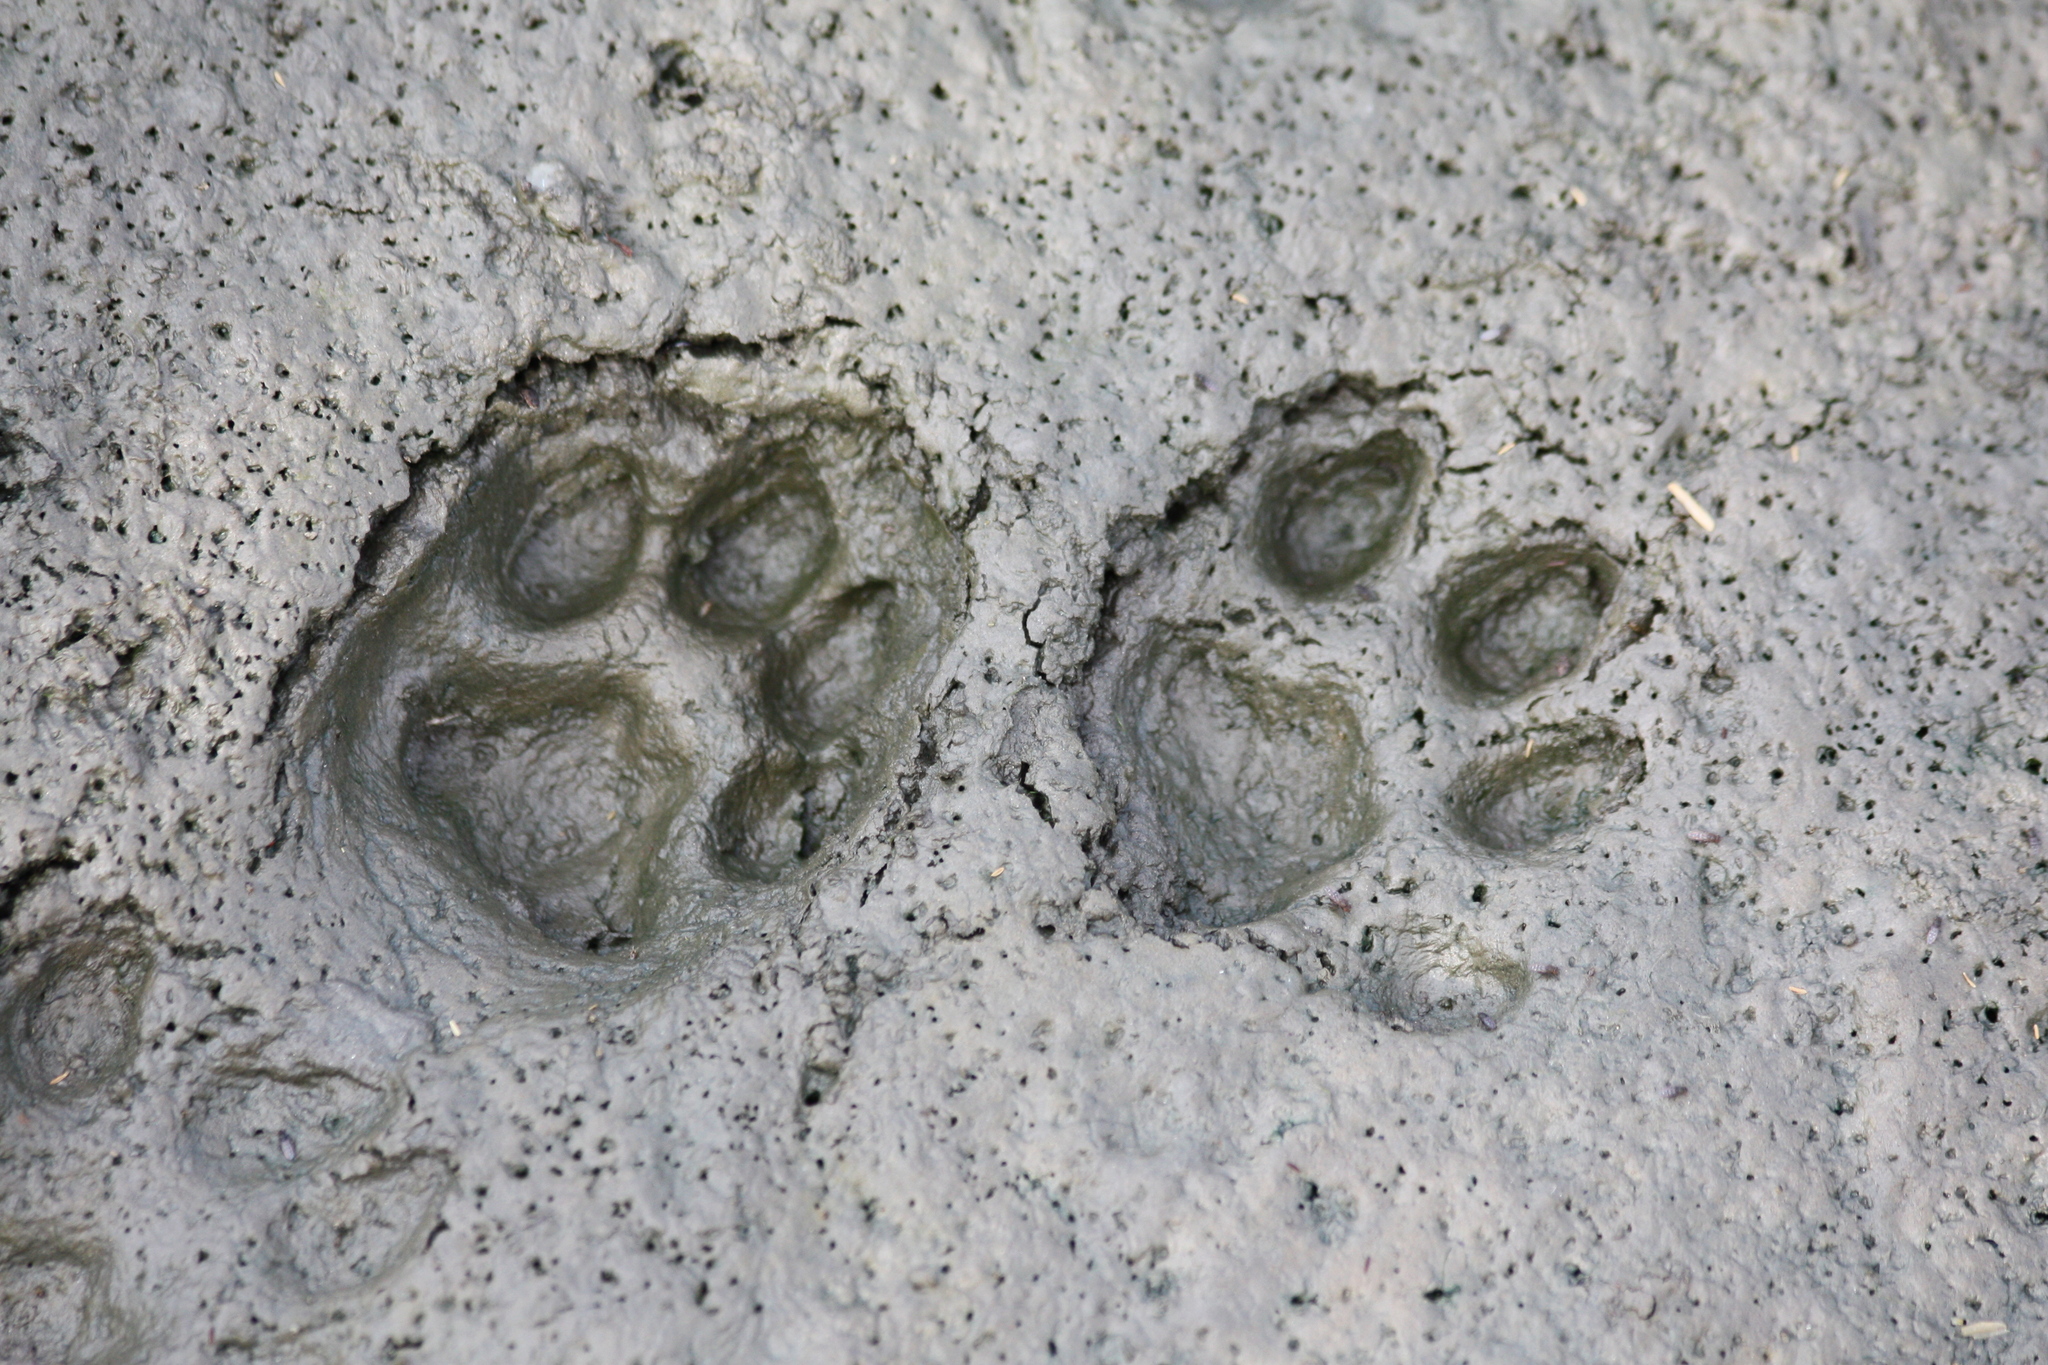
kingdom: Animalia
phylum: Chordata
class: Mammalia
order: Carnivora
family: Felidae
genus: Lynx
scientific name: Lynx rufus
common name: Bobcat
